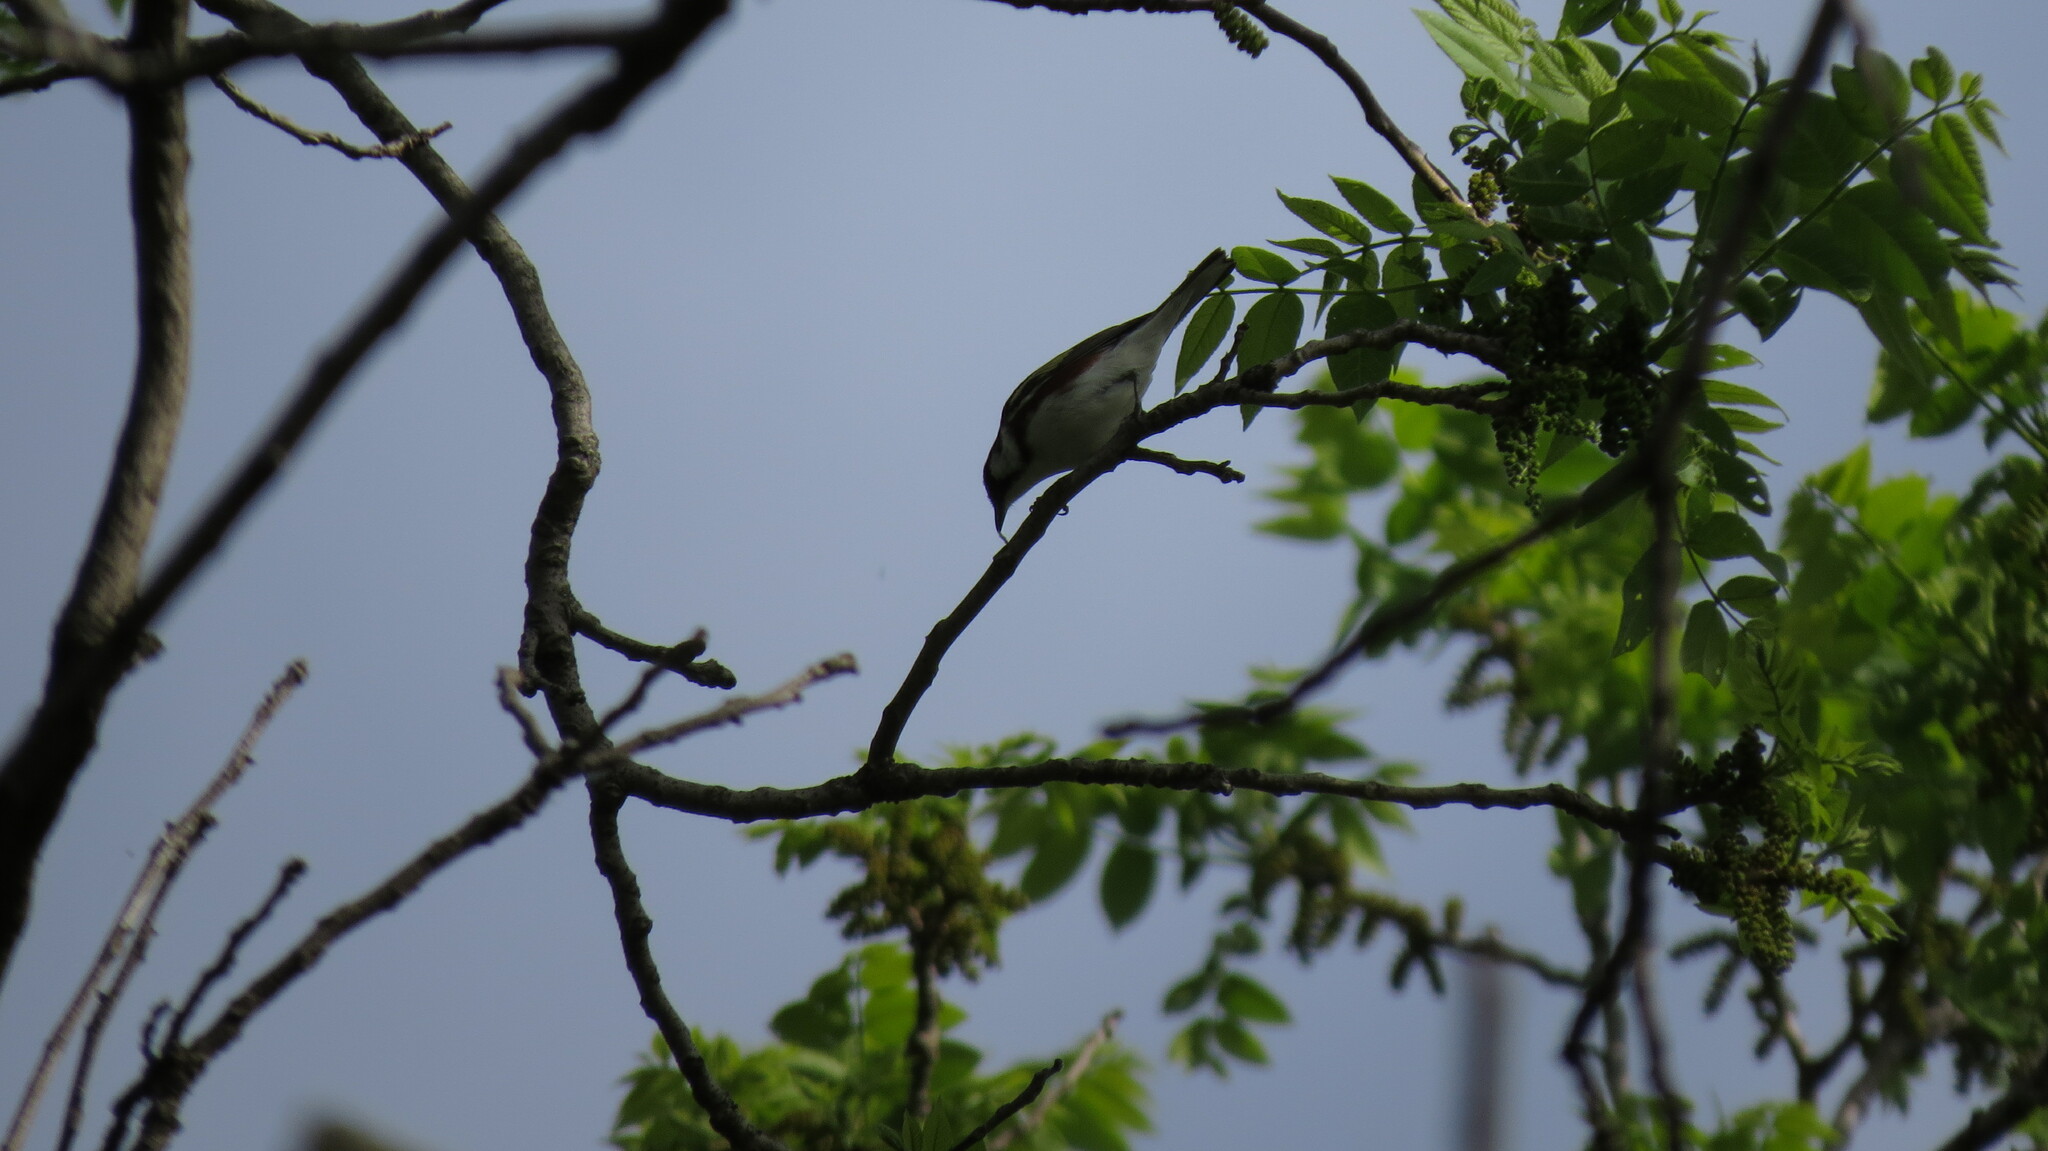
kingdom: Animalia
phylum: Chordata
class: Aves
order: Passeriformes
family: Parulidae
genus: Setophaga
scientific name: Setophaga pensylvanica
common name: Chestnut-sided warbler
